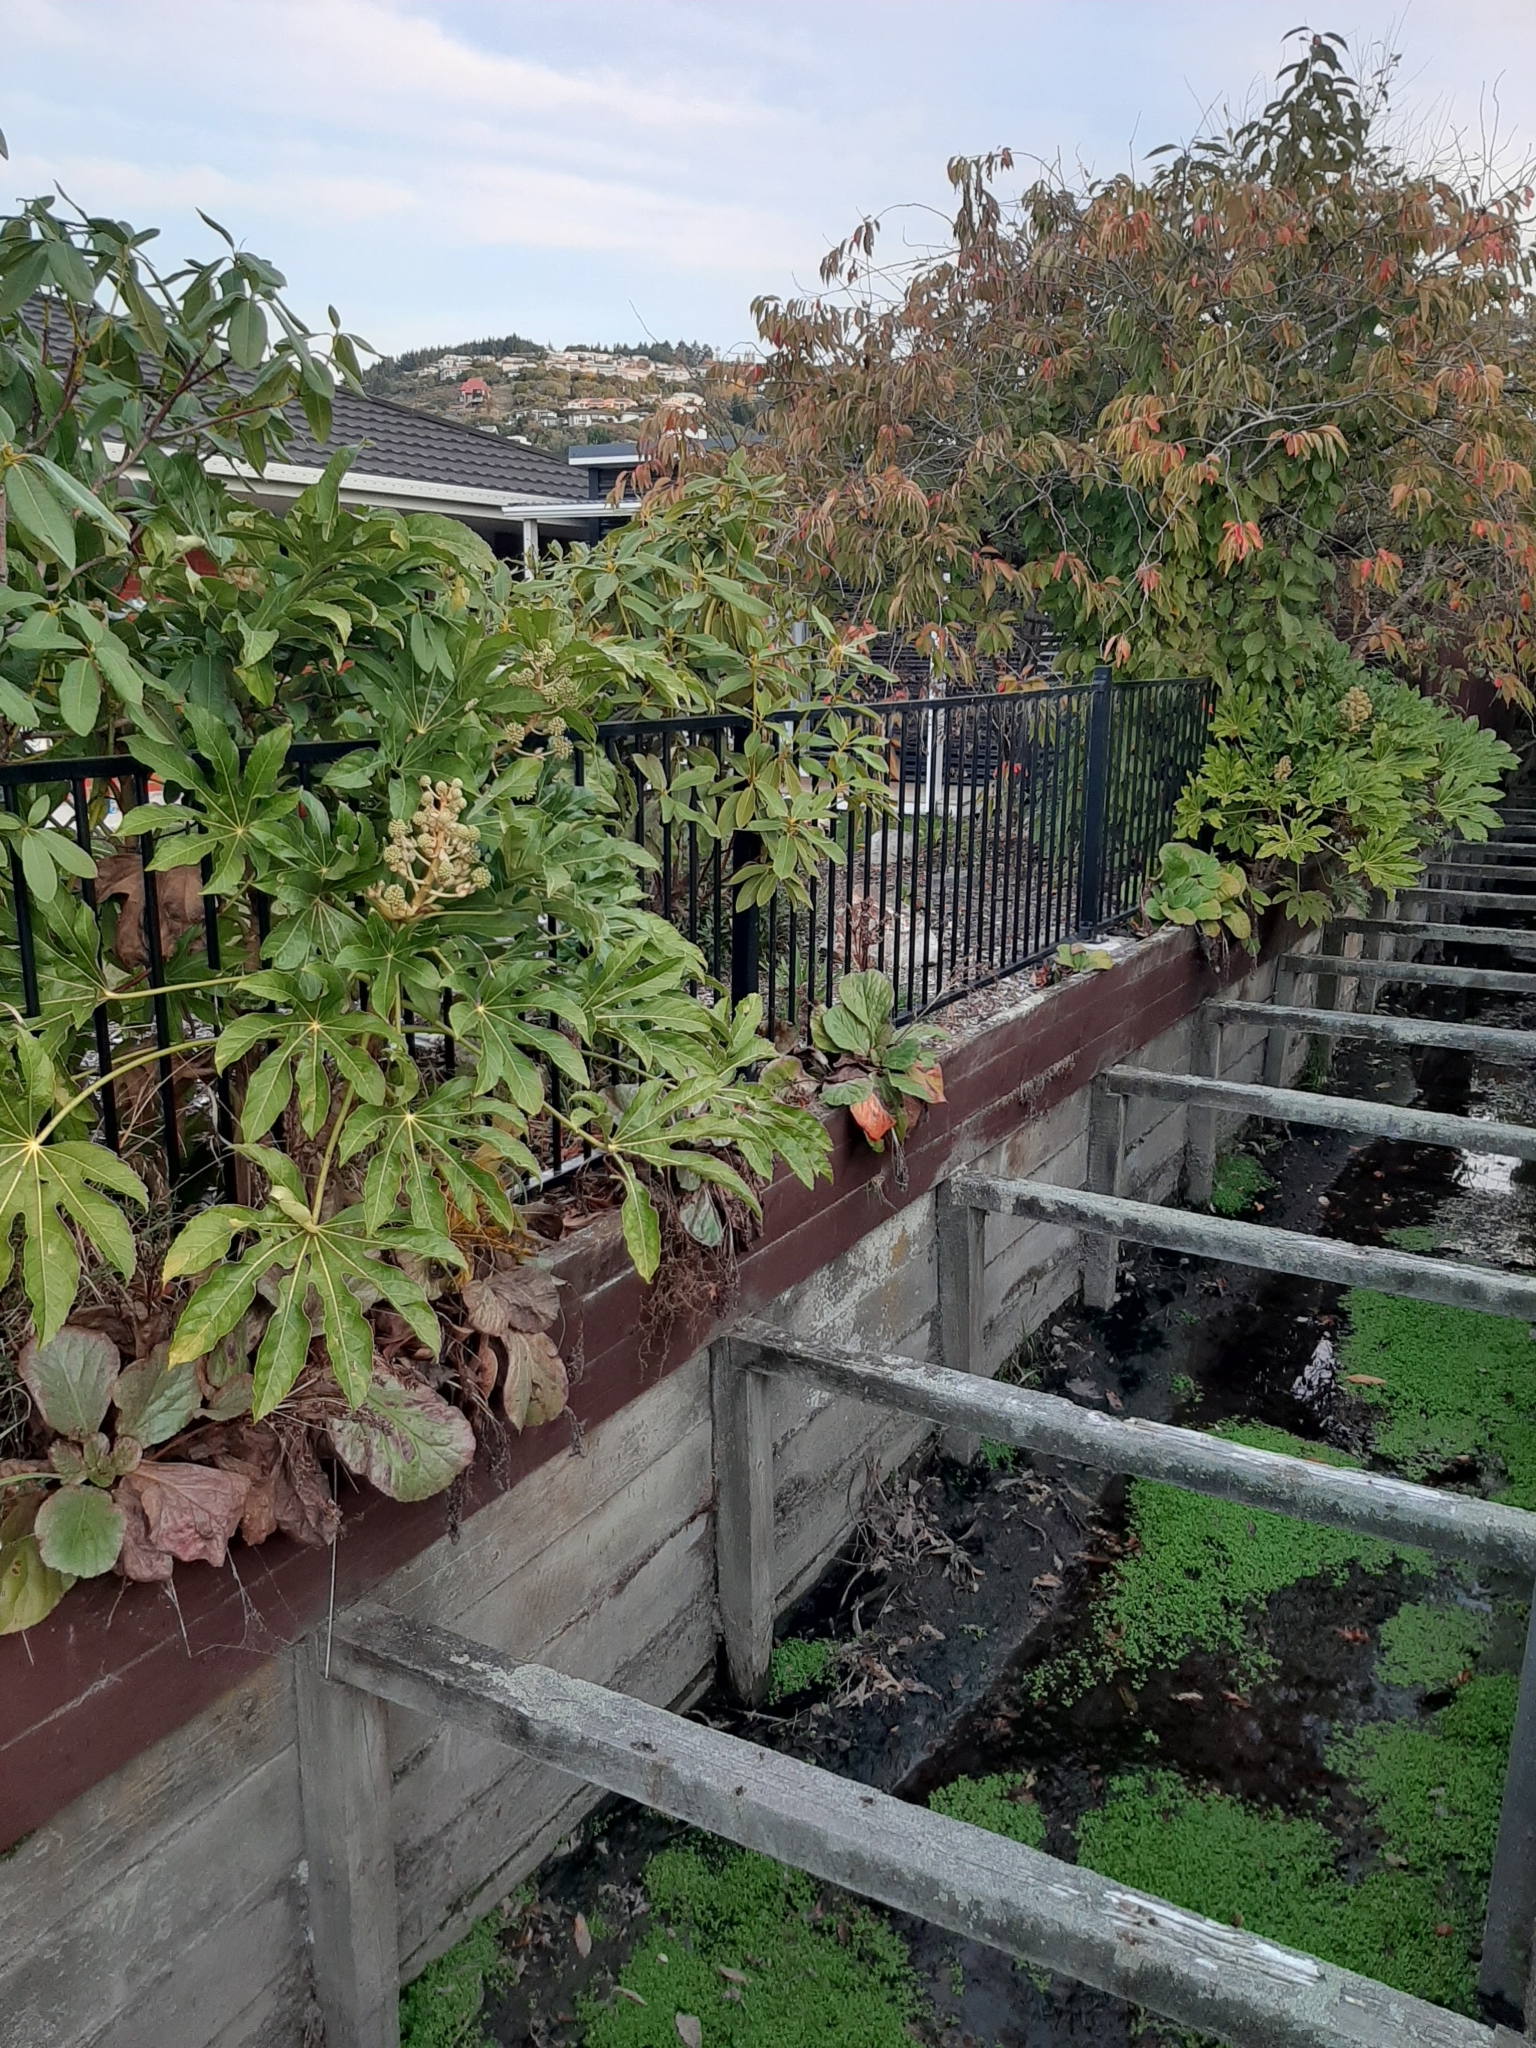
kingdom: Plantae
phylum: Tracheophyta
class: Magnoliopsida
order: Apiales
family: Araliaceae
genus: Fatsia
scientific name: Fatsia japonica
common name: Fatsia
